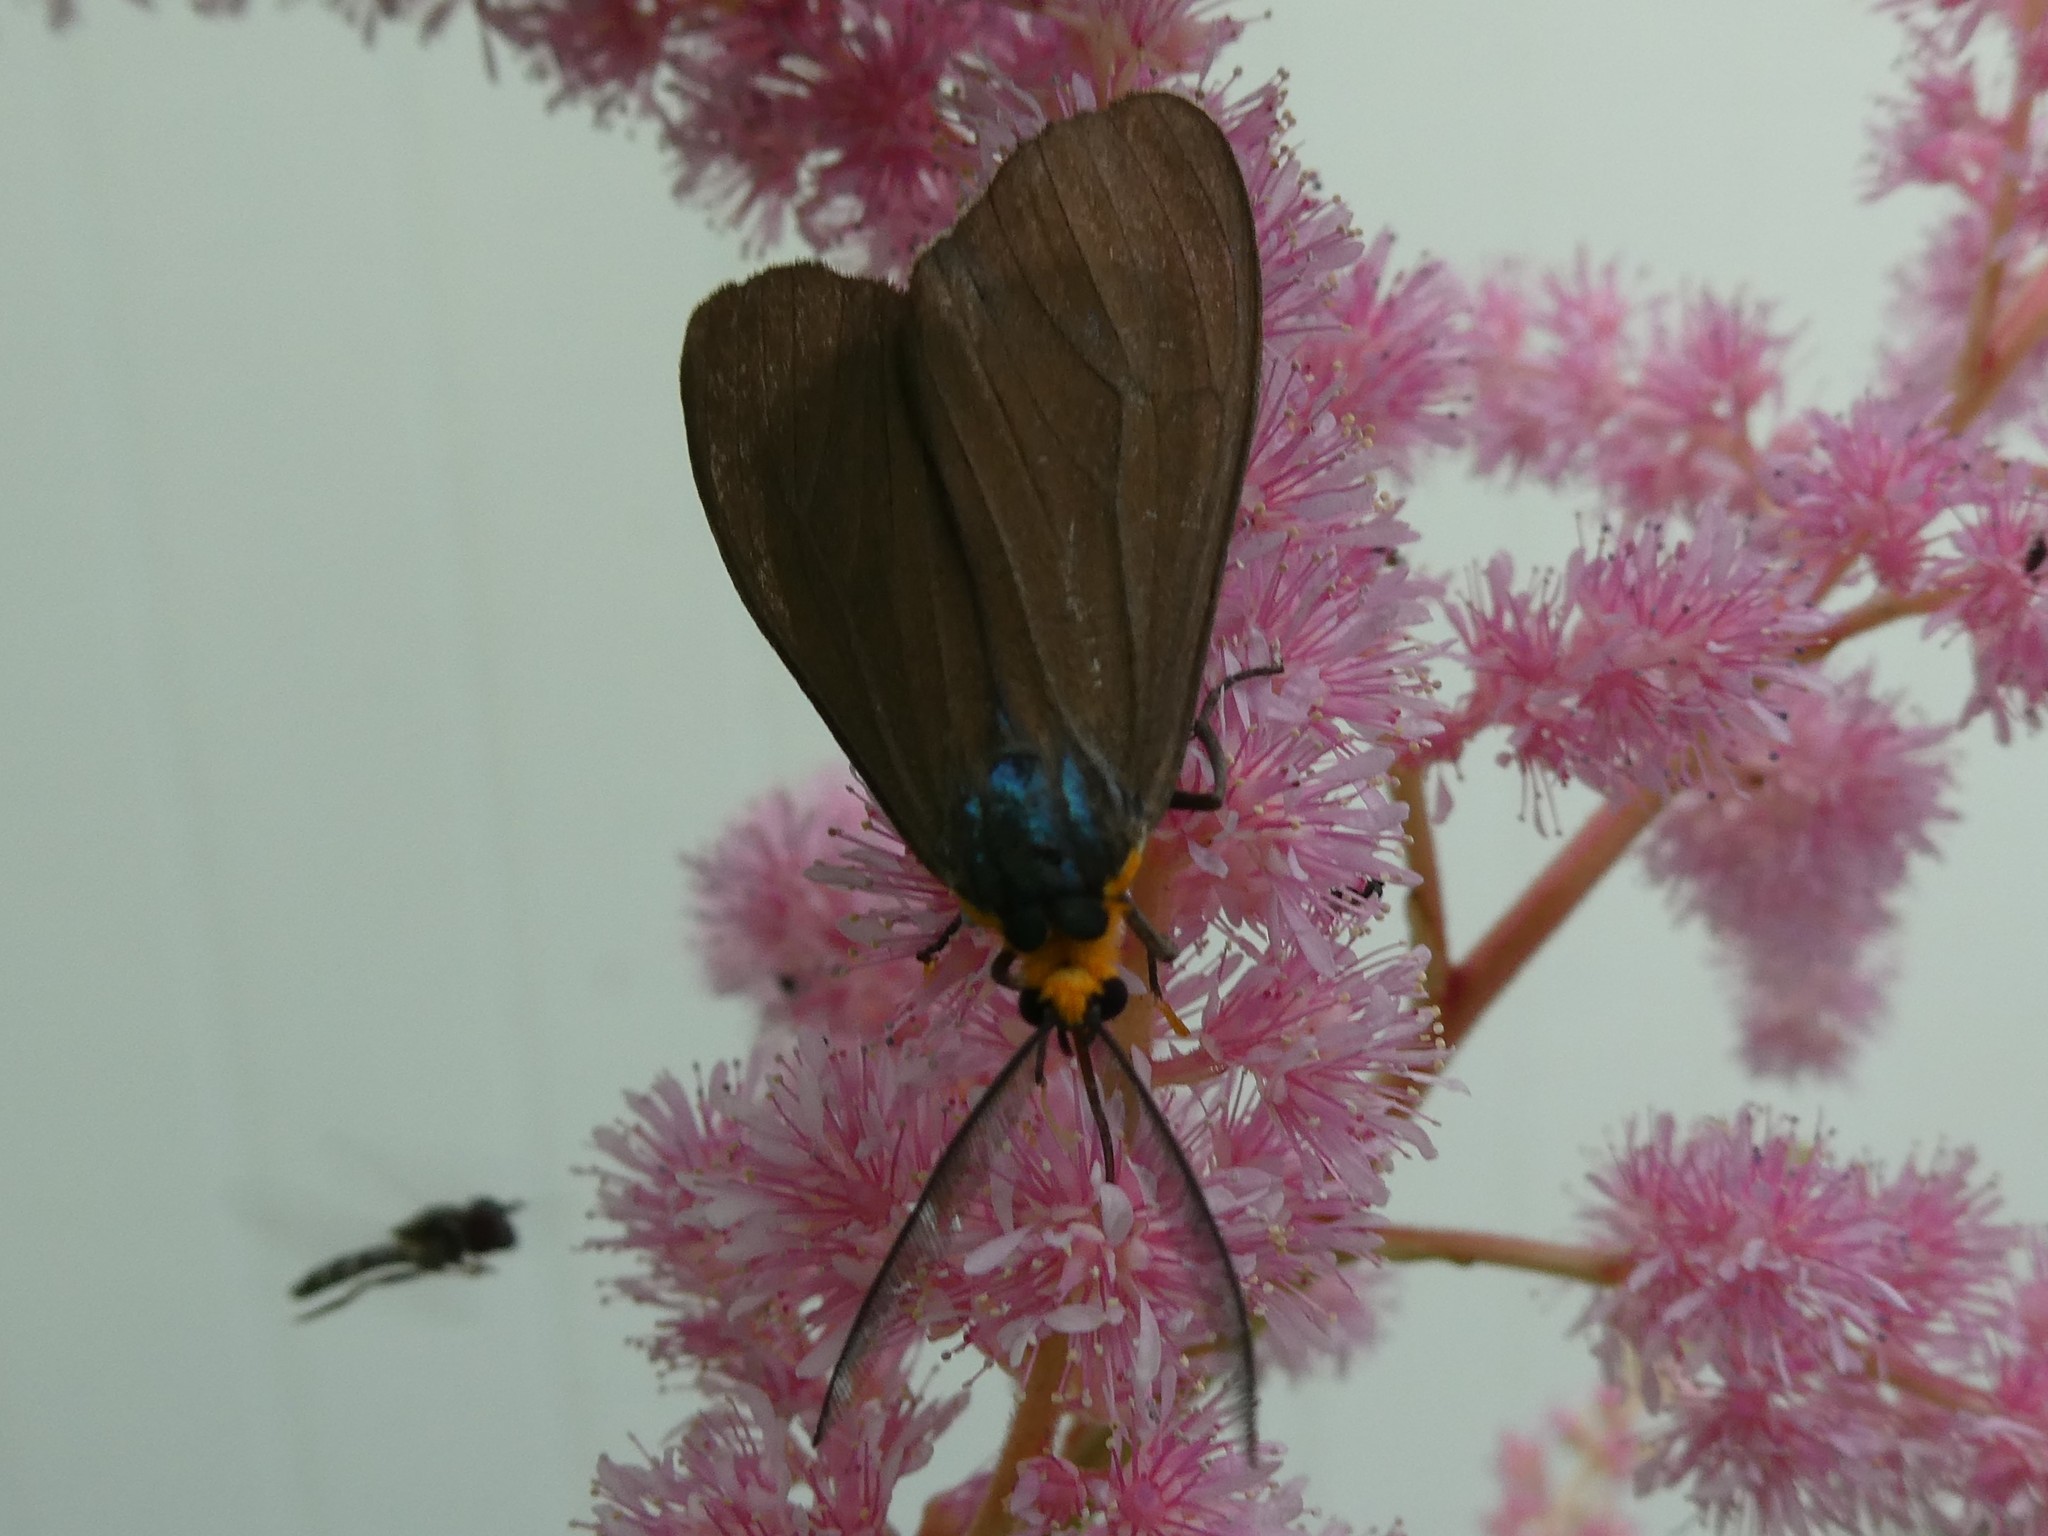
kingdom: Animalia
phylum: Arthropoda
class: Insecta
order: Lepidoptera
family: Erebidae
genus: Ctenucha
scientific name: Ctenucha virginica
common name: Virginia ctenucha moth
